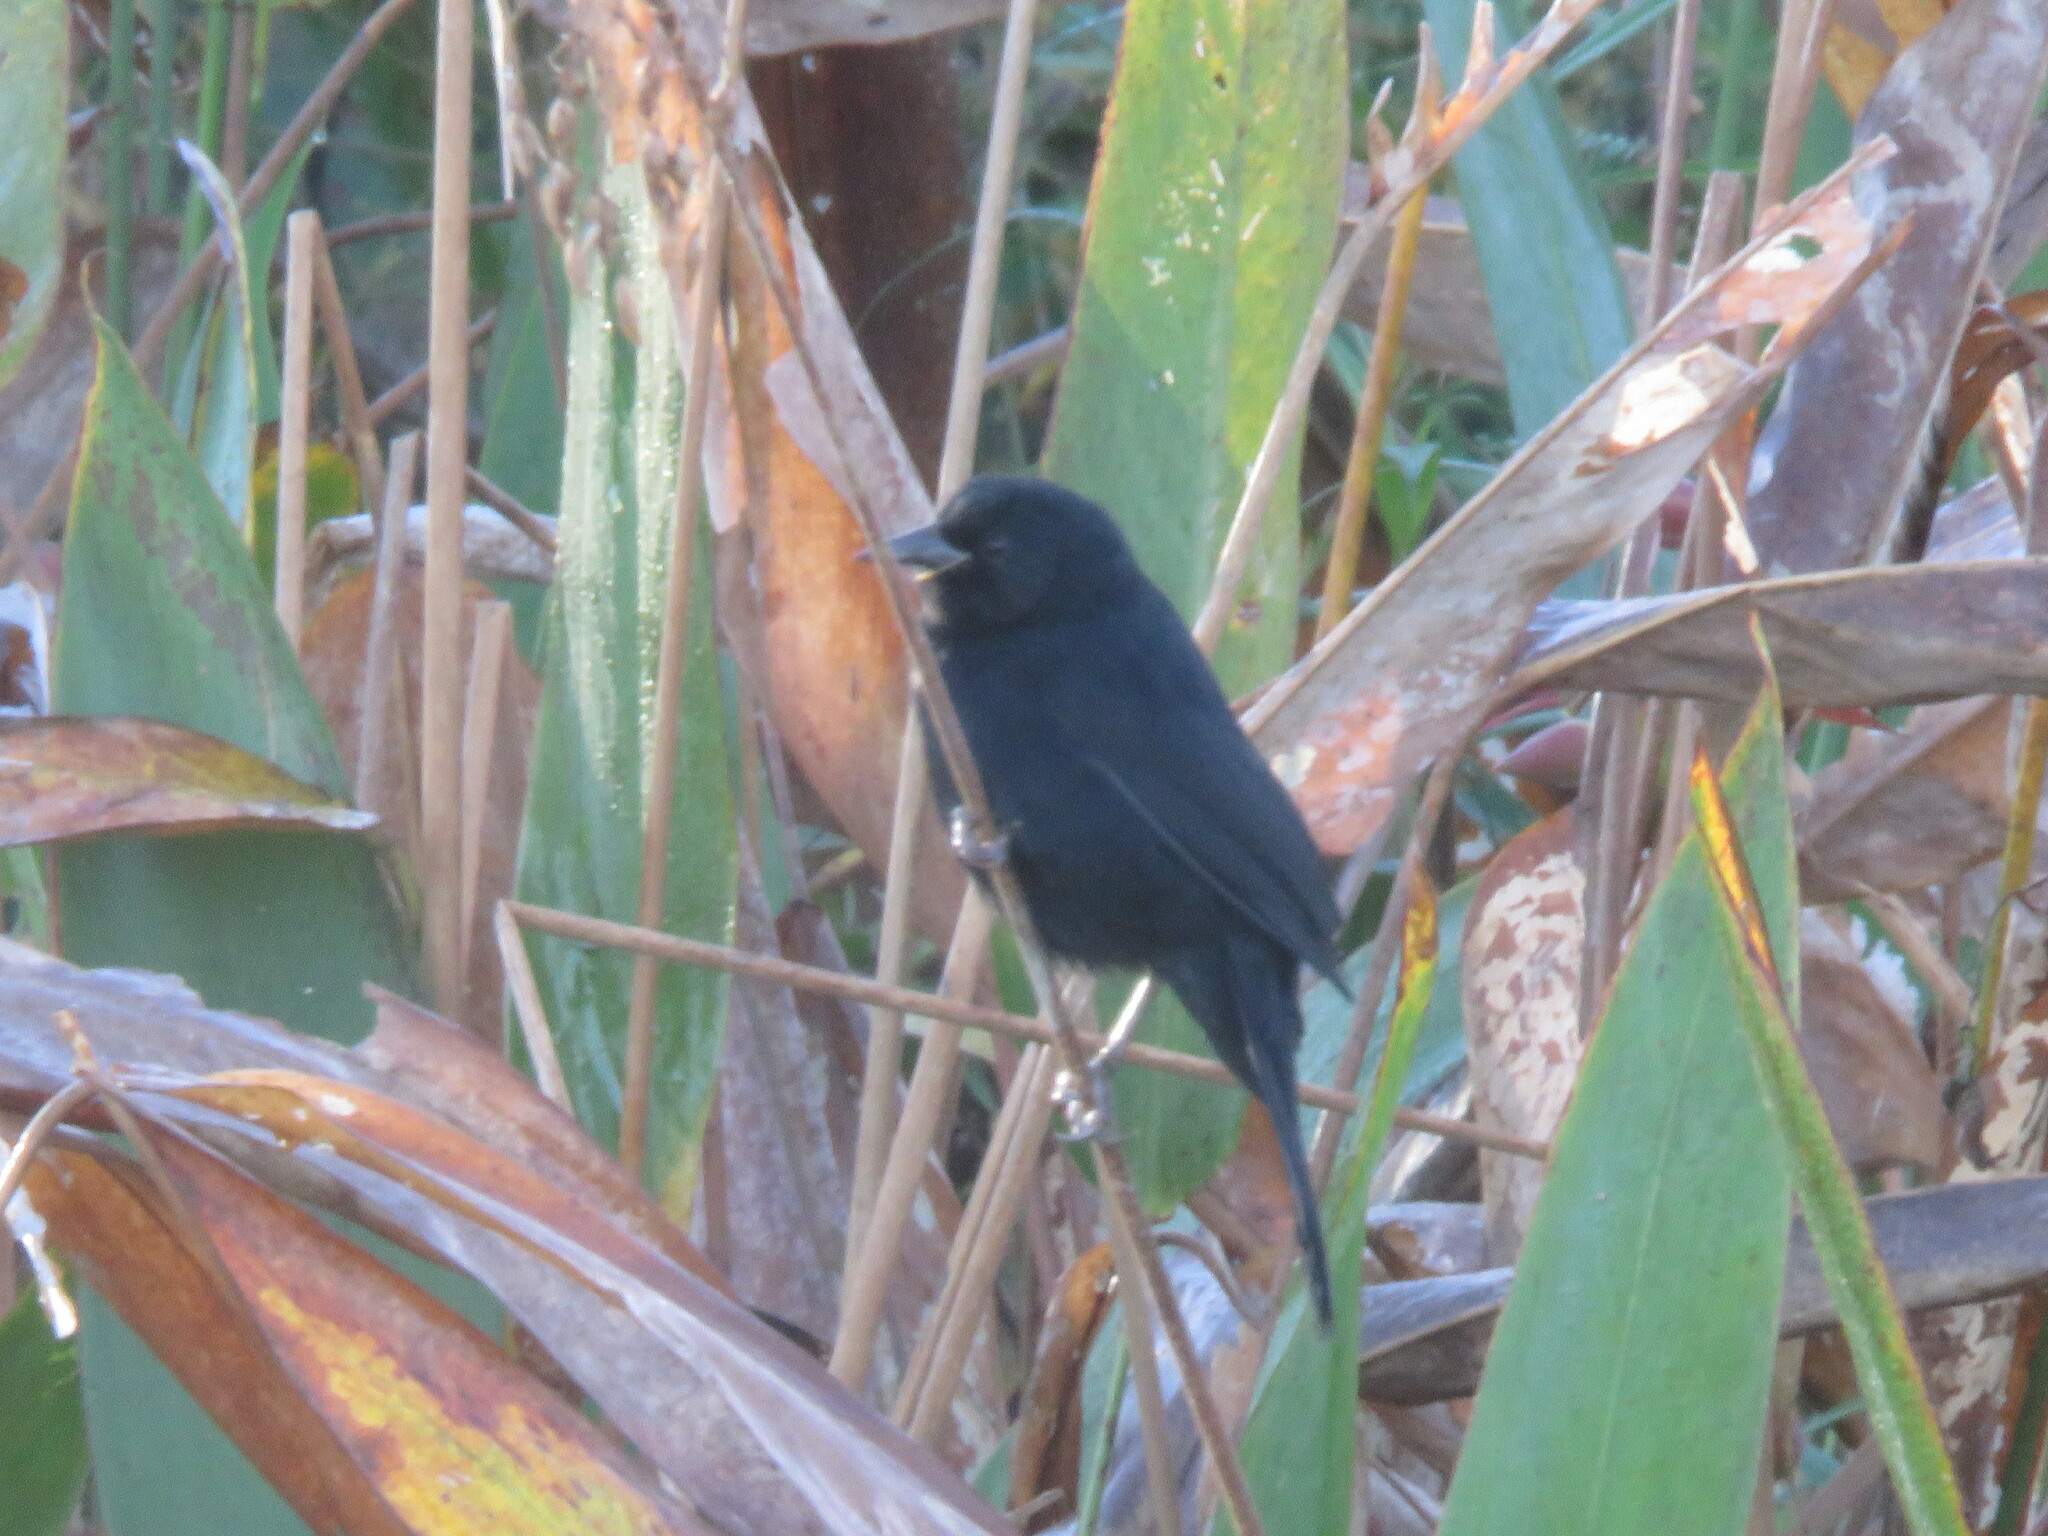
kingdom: Animalia
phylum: Chordata
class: Aves
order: Passeriformes
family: Icteridae
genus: Agelasticus
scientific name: Agelasticus cyanopus
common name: Unicolored blackbird
